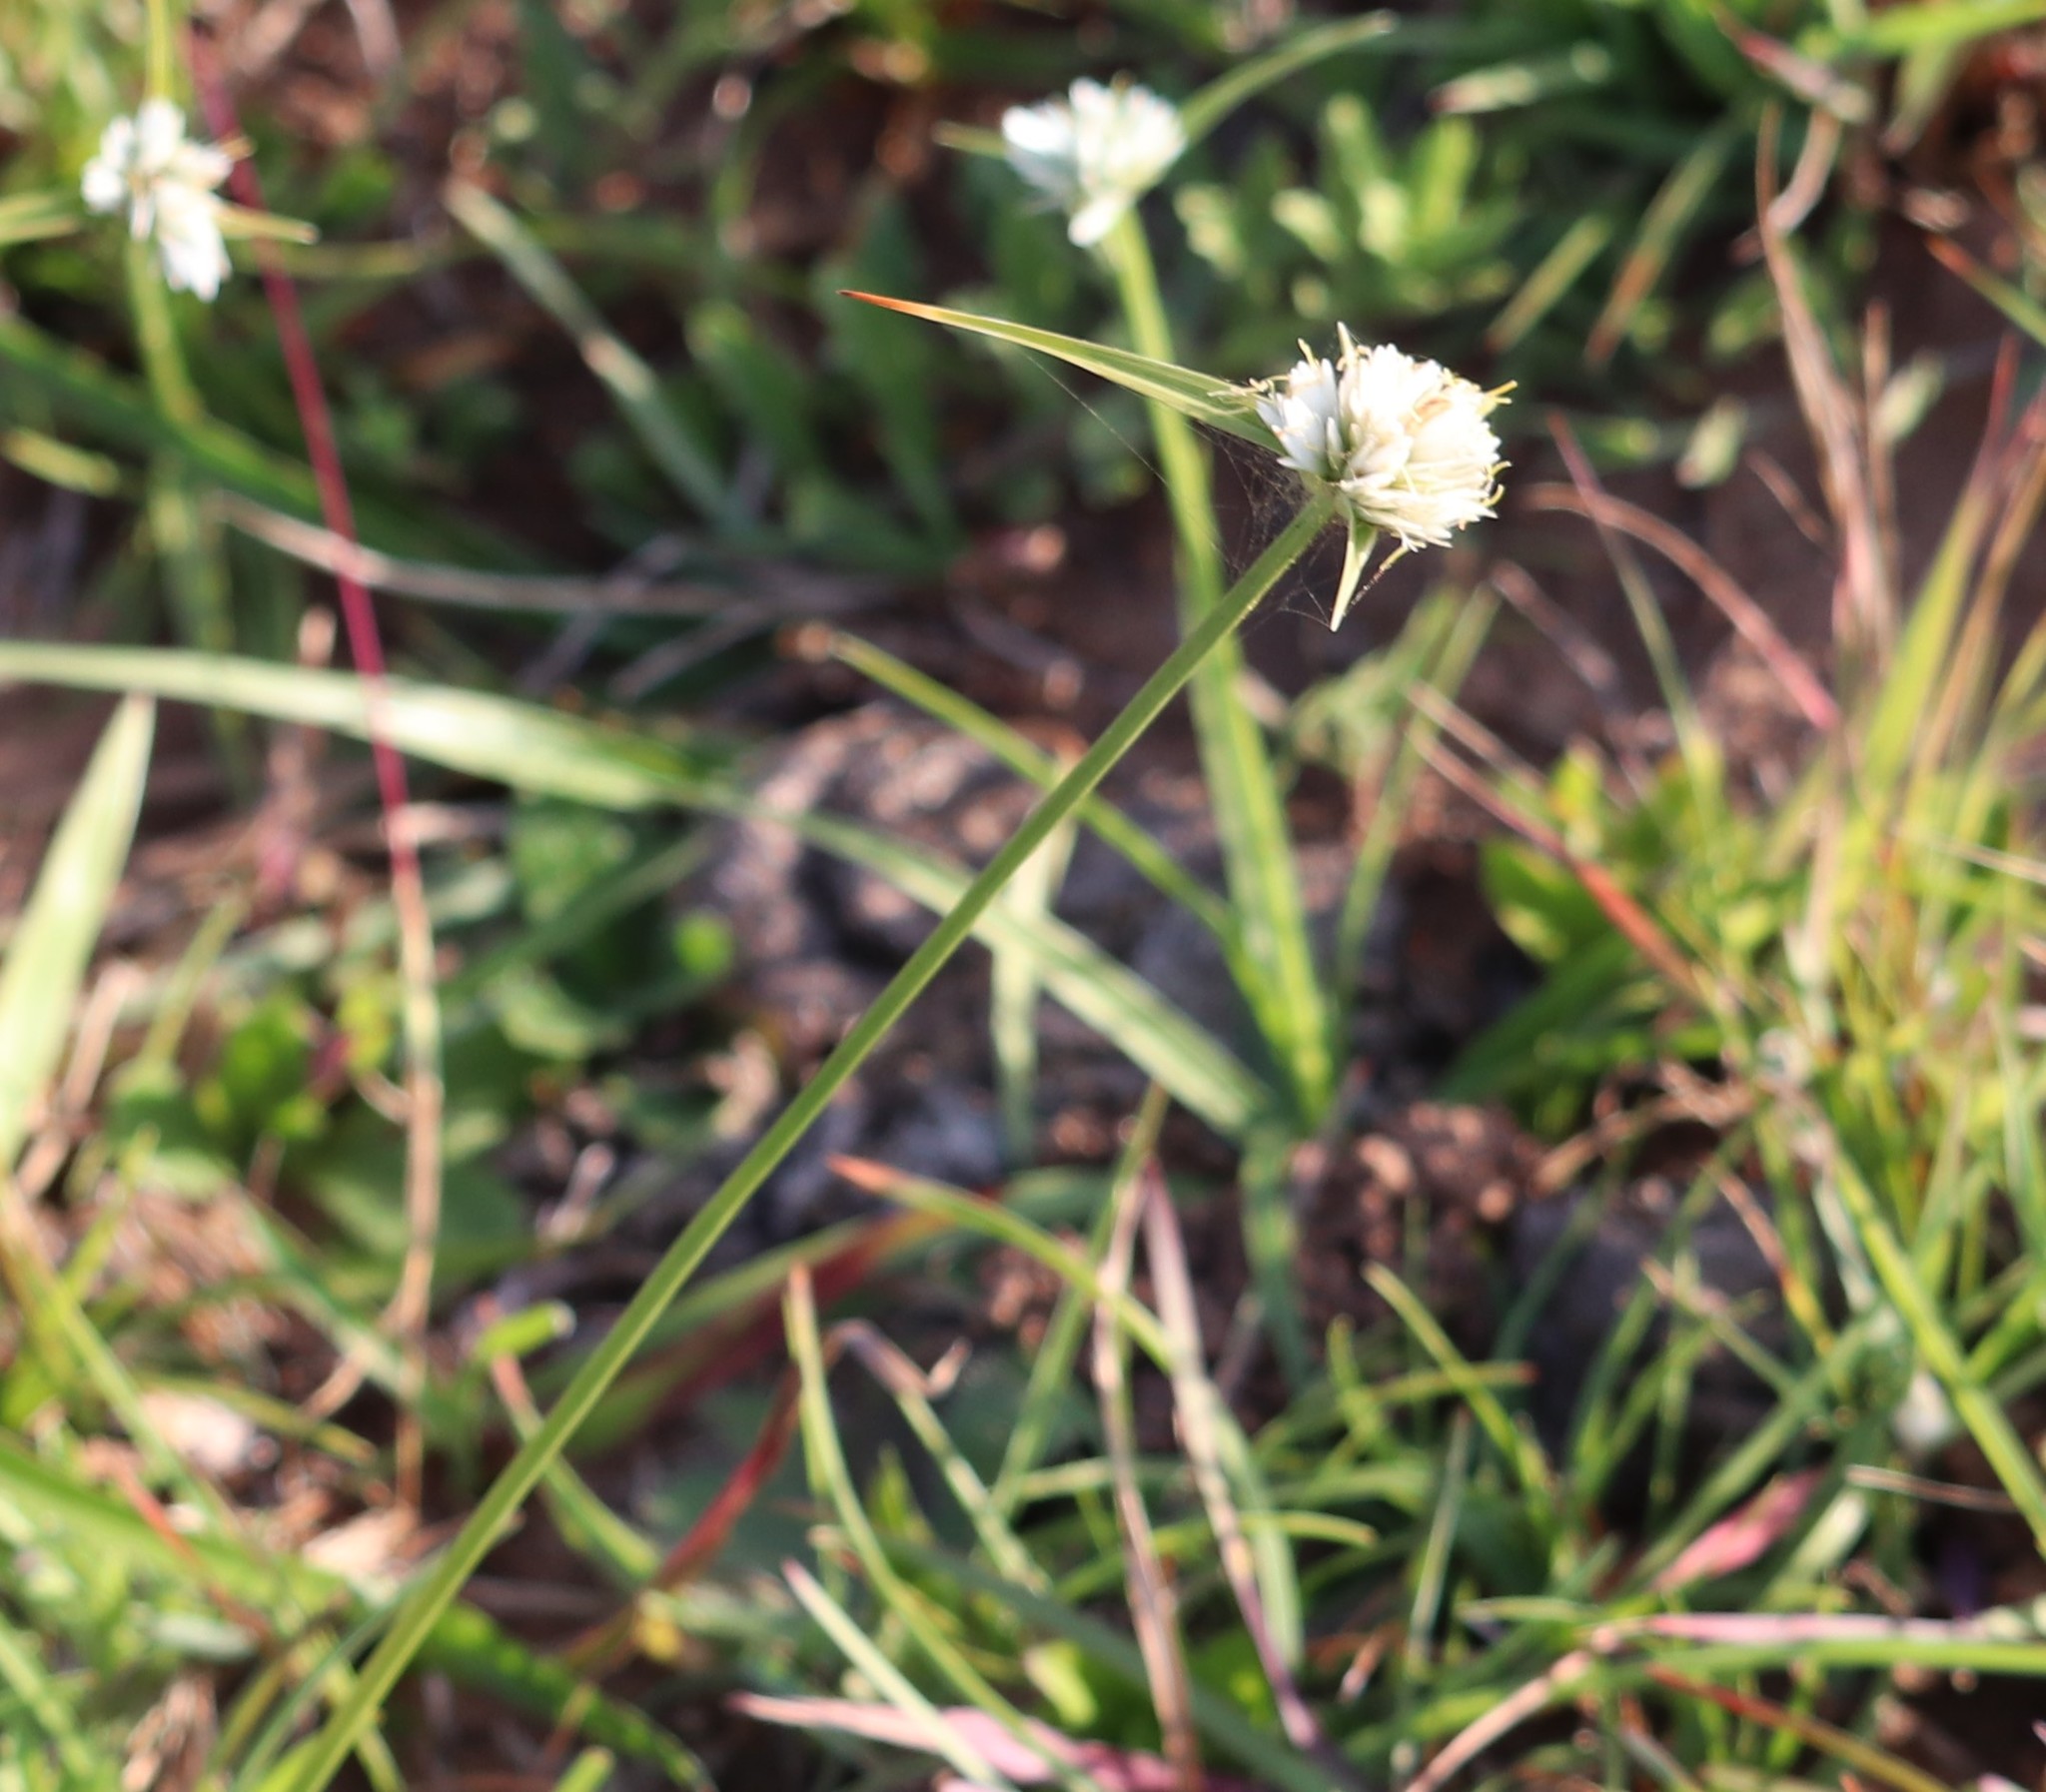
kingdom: Plantae
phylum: Tracheophyta
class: Liliopsida
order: Poales
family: Cyperaceae
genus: Cyperus
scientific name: Cyperus niveus
